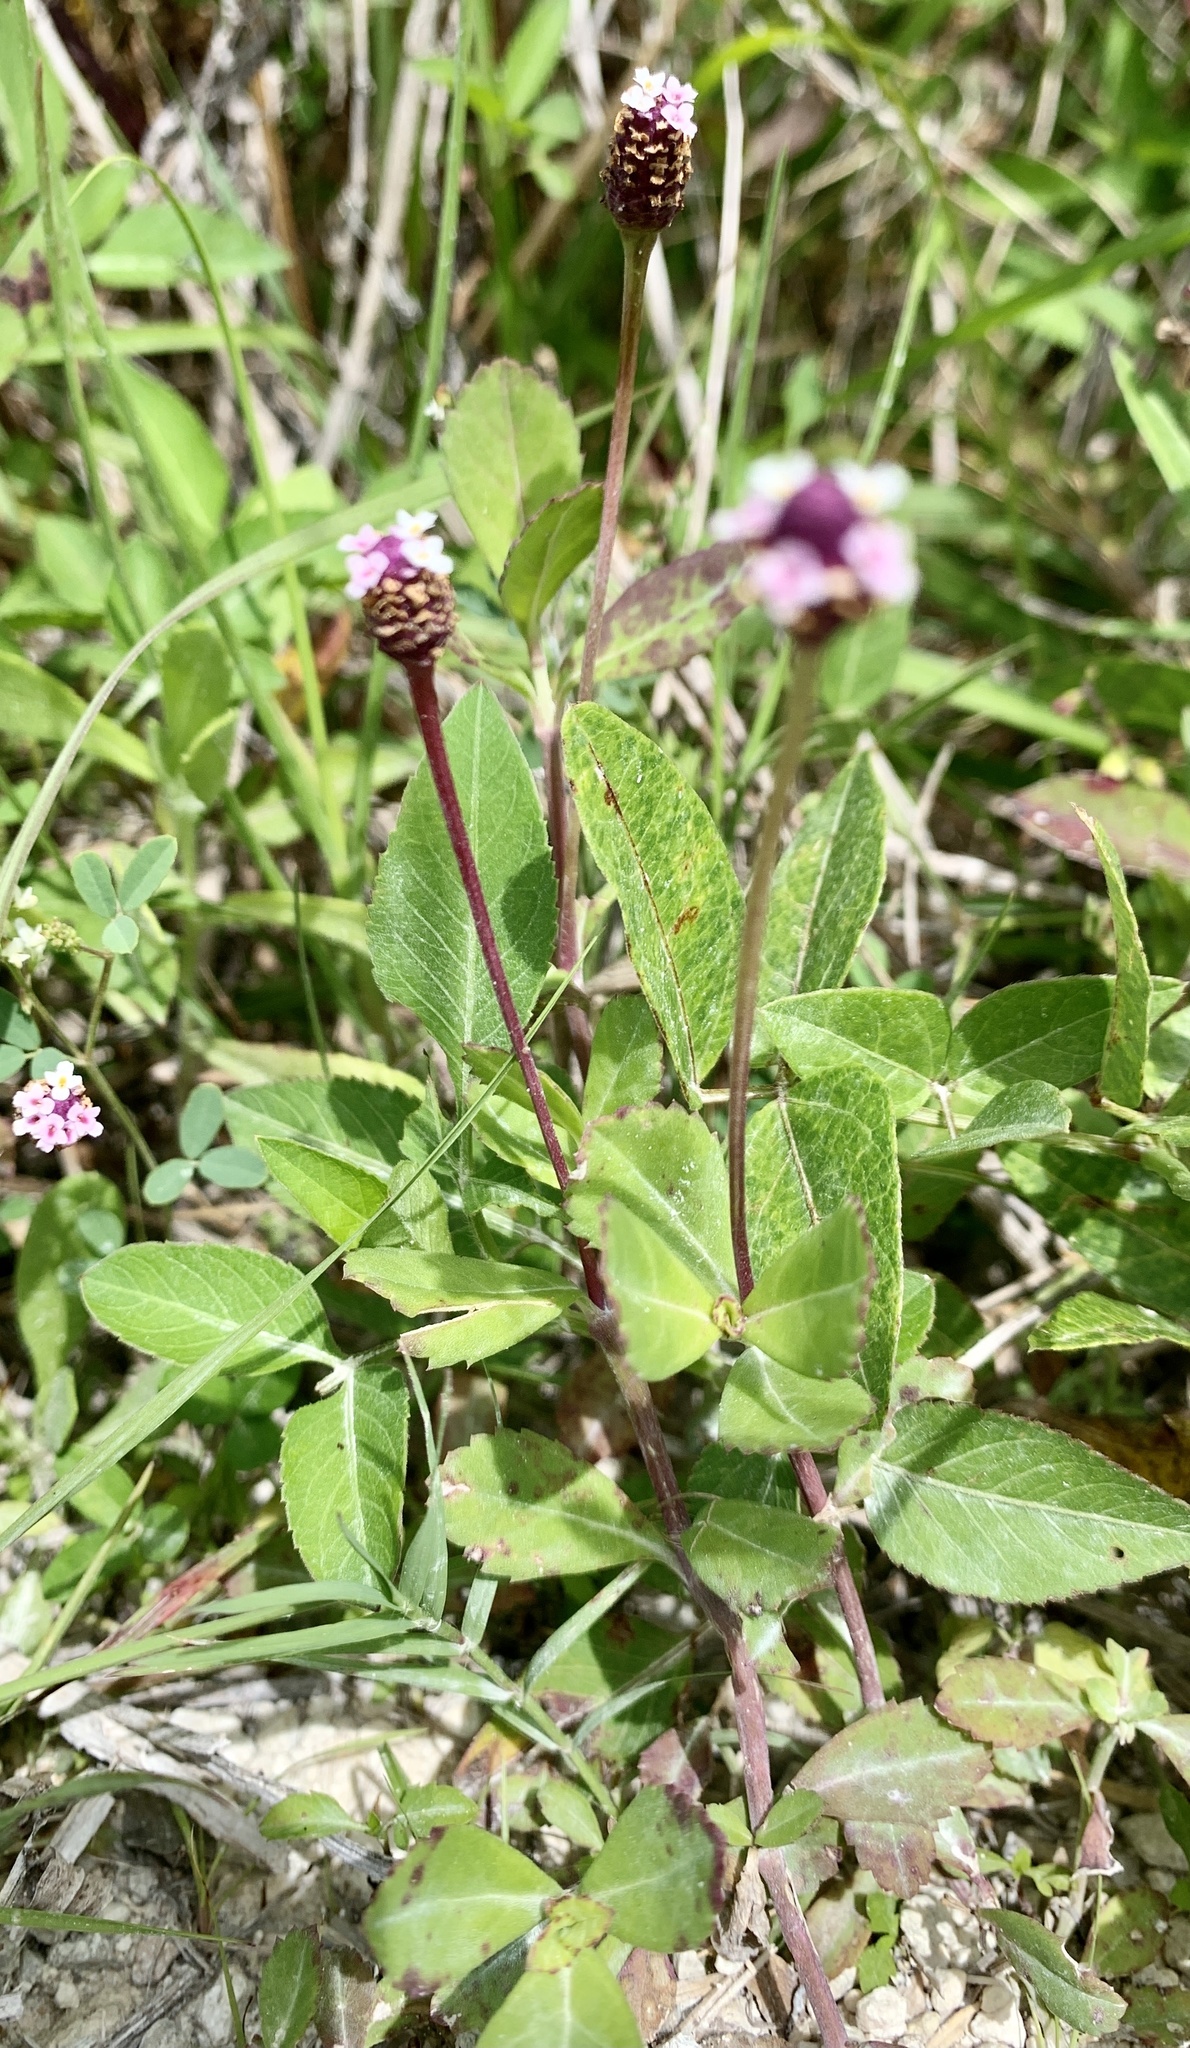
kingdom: Plantae
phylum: Tracheophyta
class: Magnoliopsida
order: Lamiales
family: Verbenaceae
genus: Phyla
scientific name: Phyla nodiflora
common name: Frogfruit
